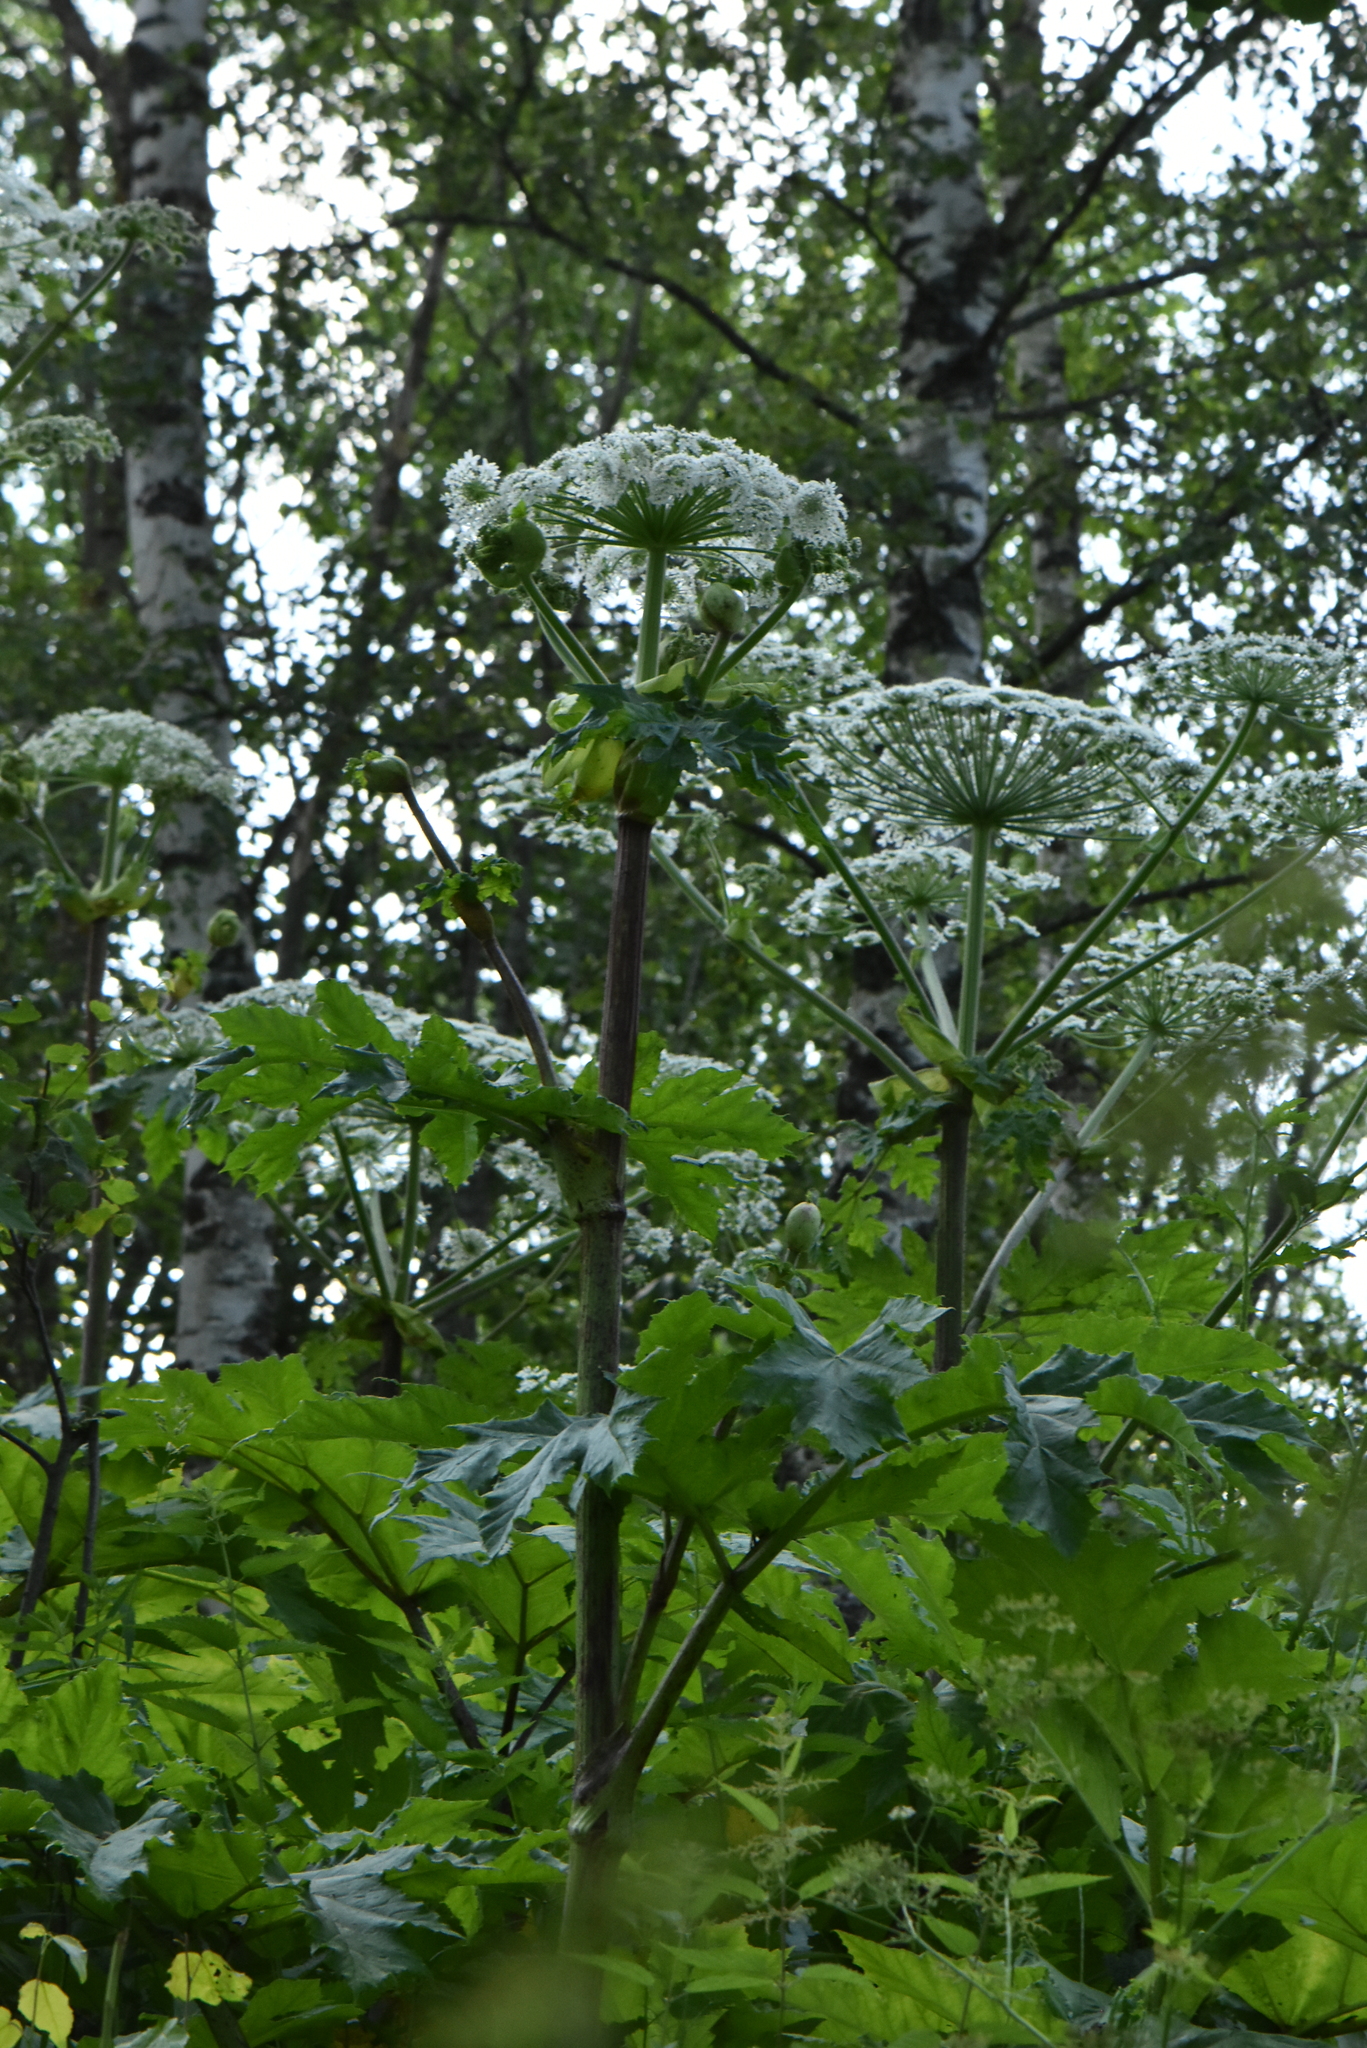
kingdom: Plantae
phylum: Tracheophyta
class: Magnoliopsida
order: Apiales
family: Apiaceae
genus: Heracleum
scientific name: Heracleum sosnowskyi
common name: Sosnowsky's hogweed
